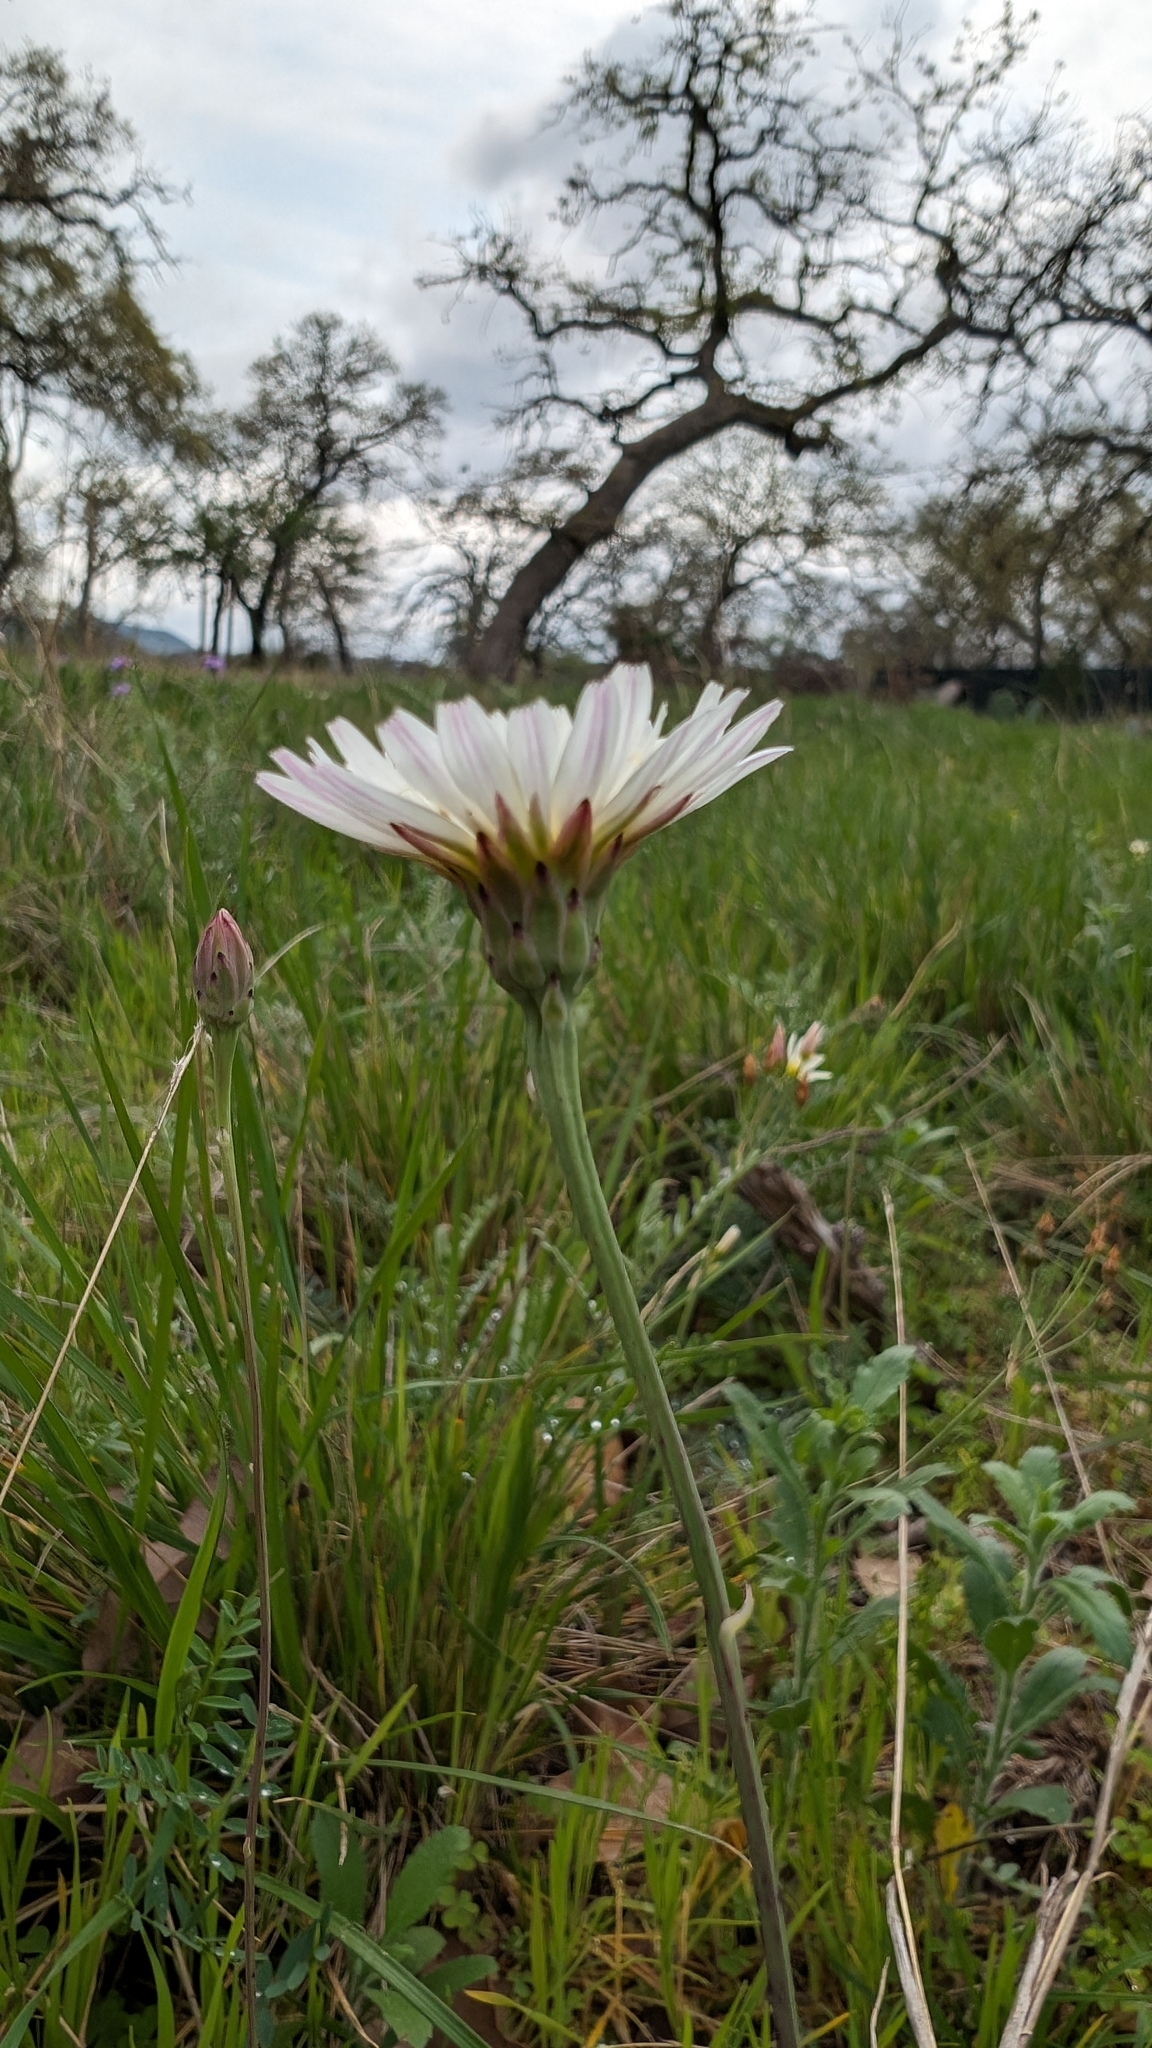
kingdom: Plantae
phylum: Tracheophyta
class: Magnoliopsida
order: Asterales
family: Asteraceae
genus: Pinaropappus
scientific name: Pinaropappus roseus
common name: Rock-lettuce
